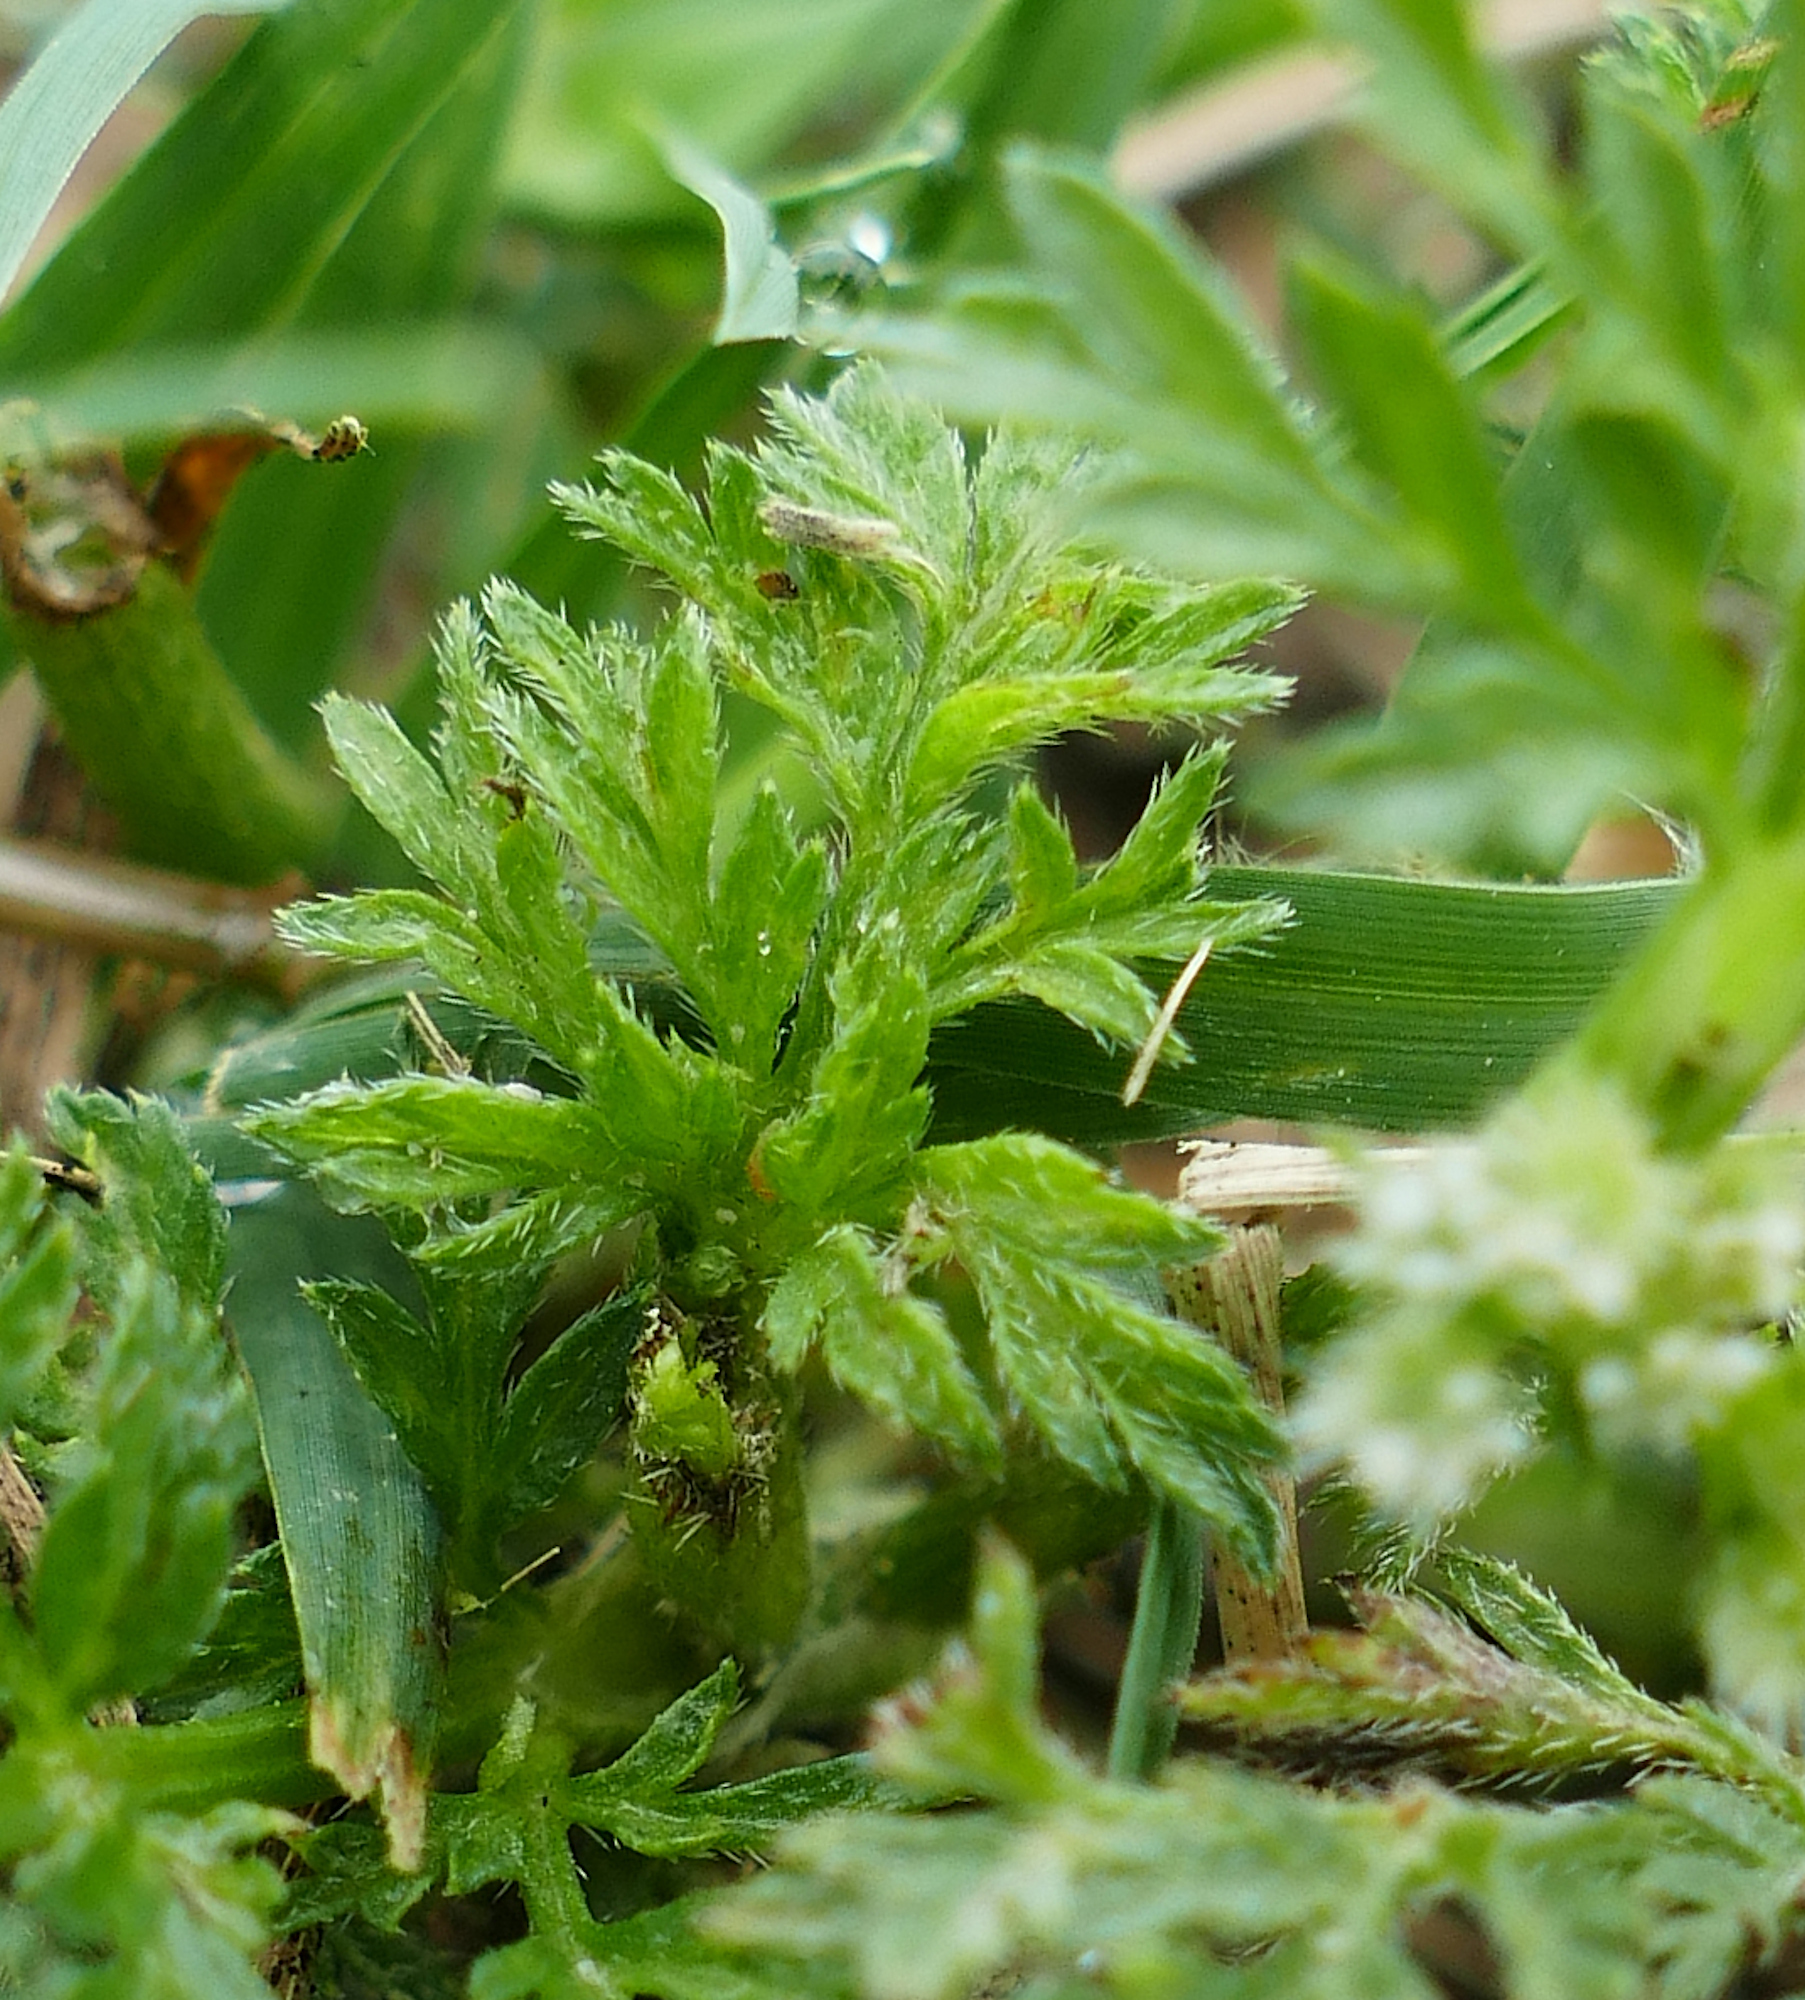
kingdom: Plantae
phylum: Tracheophyta
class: Magnoliopsida
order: Apiales
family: Apiaceae
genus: Torilis
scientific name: Torilis nodosa
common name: Knotted hedge-parsley
